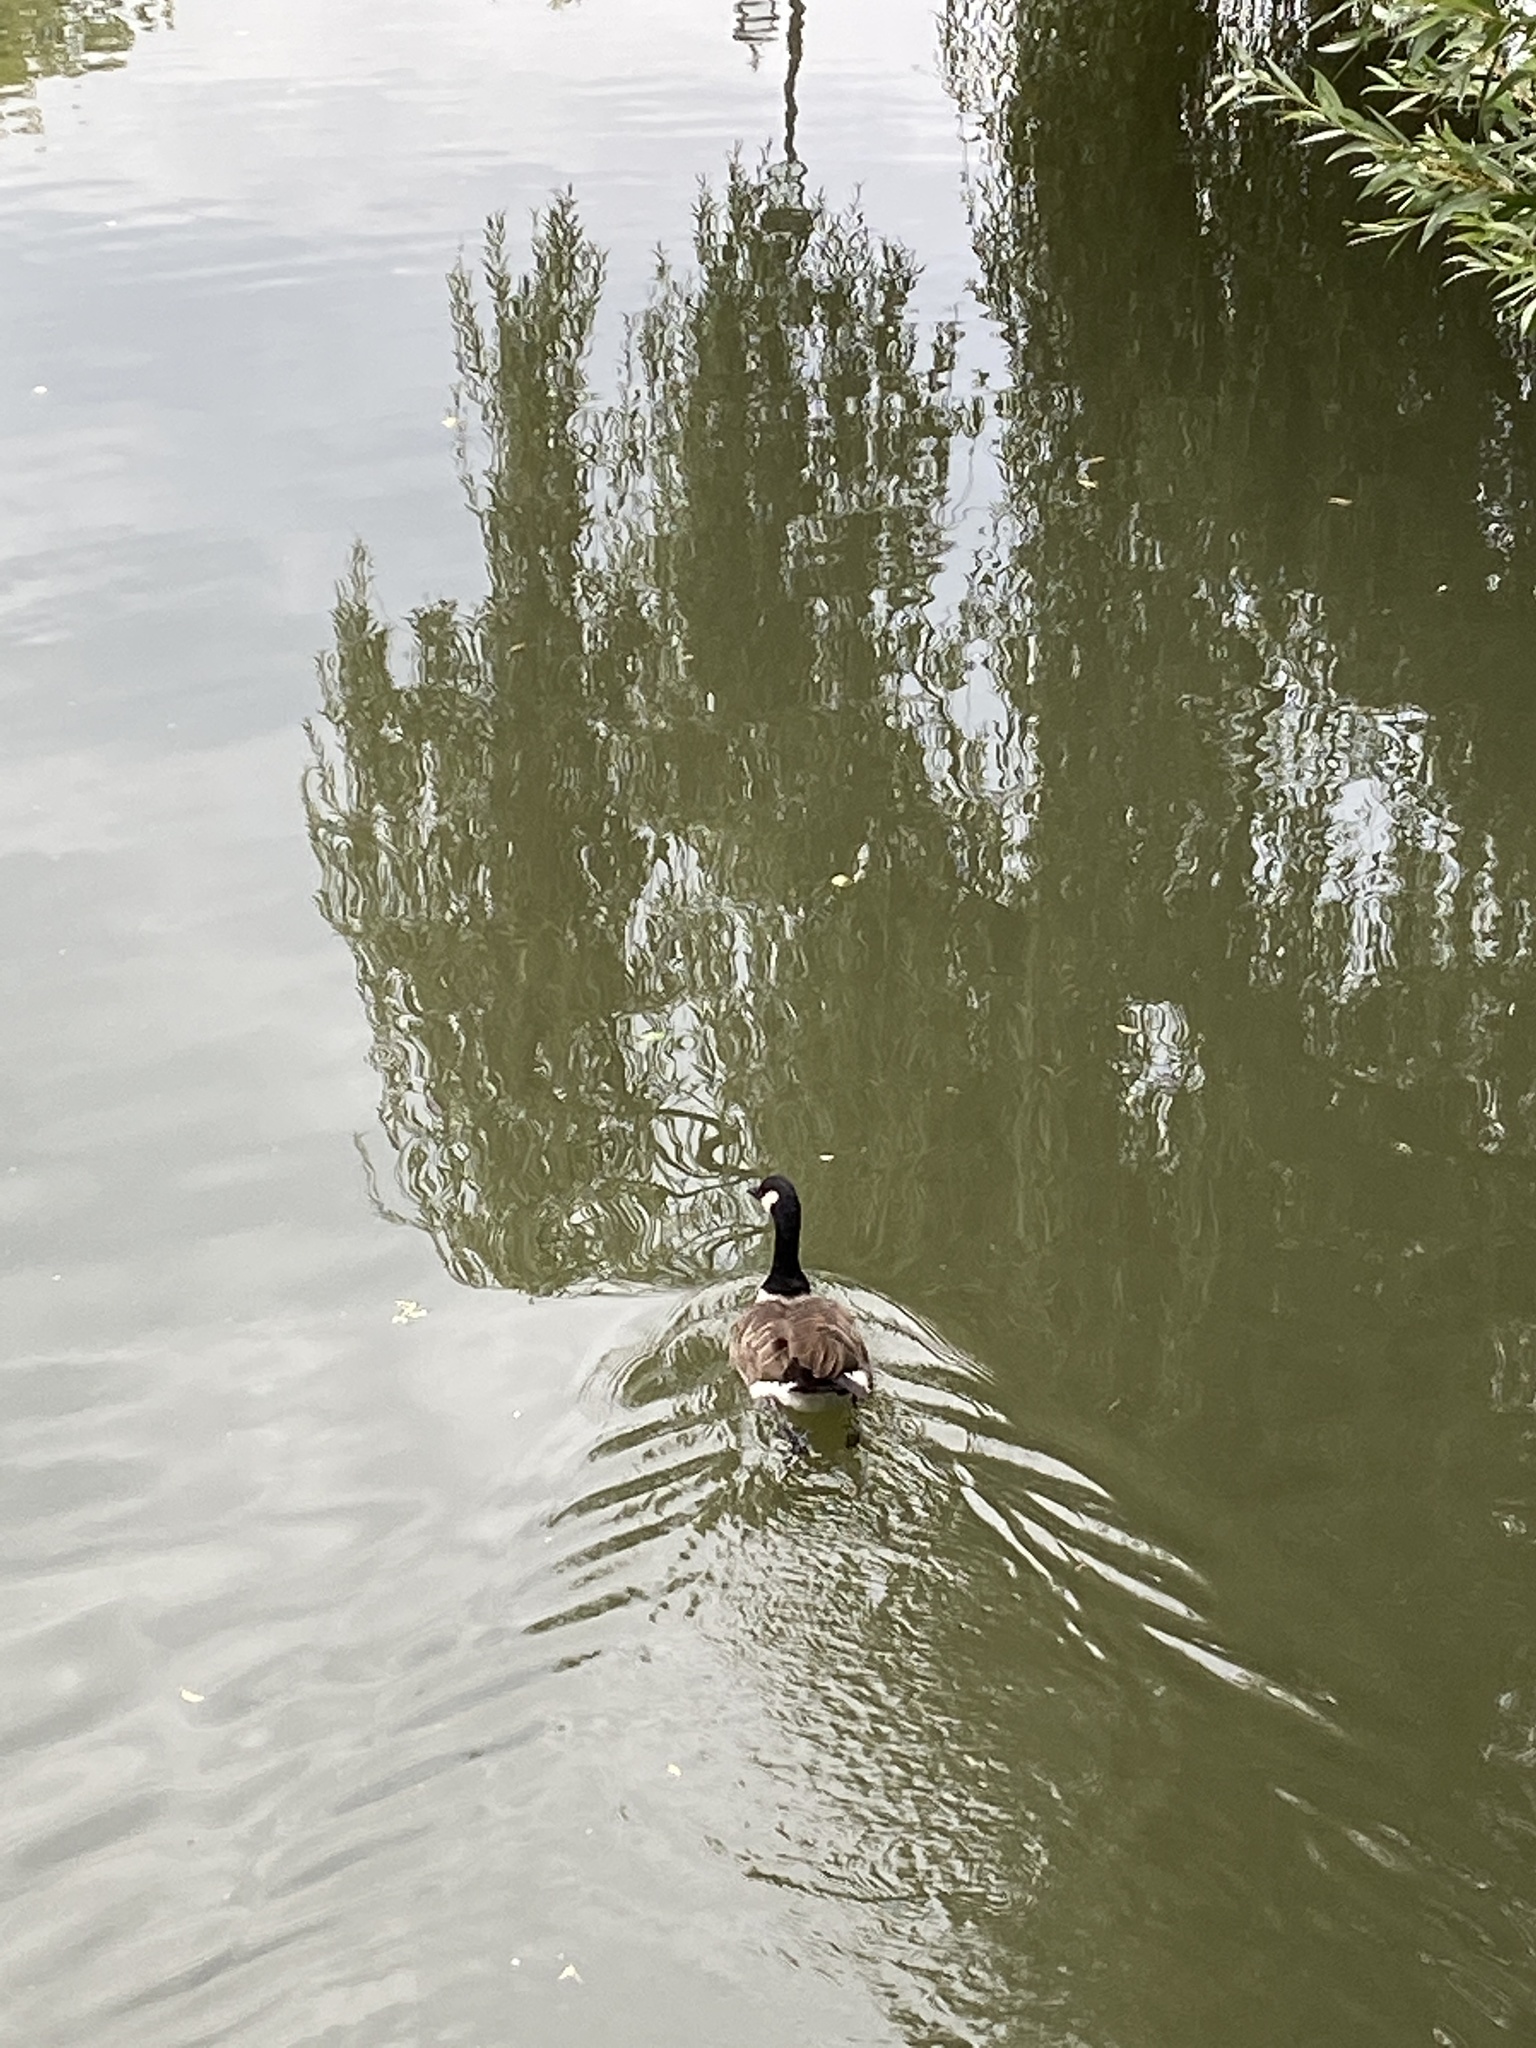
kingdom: Animalia
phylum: Chordata
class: Aves
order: Anseriformes
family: Anatidae
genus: Branta
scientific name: Branta canadensis
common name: Canada goose
